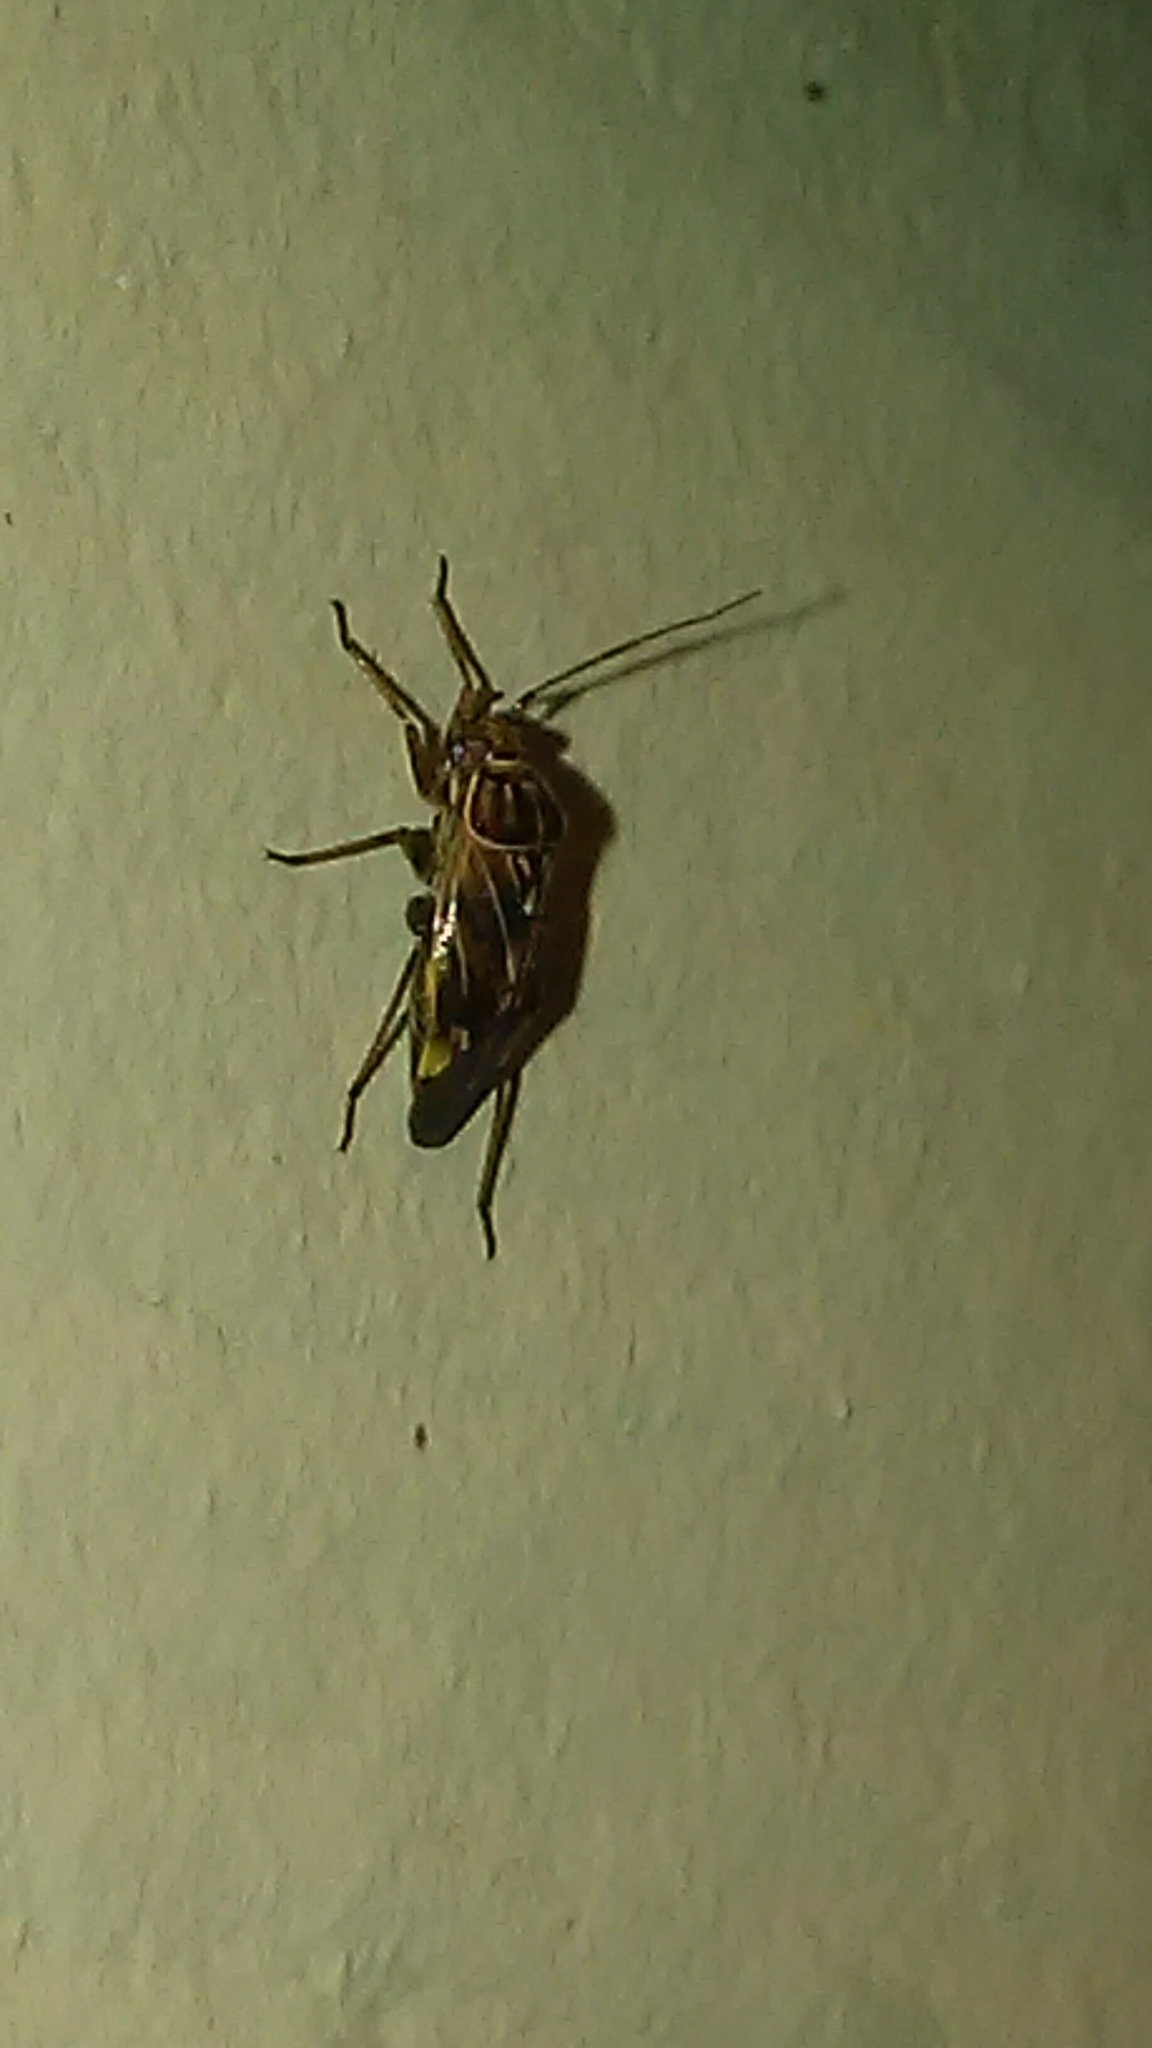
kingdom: Animalia
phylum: Arthropoda
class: Insecta
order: Hemiptera
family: Miridae
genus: Lygus
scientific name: Lygus lineolaris
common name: North american tarnished plant bug
